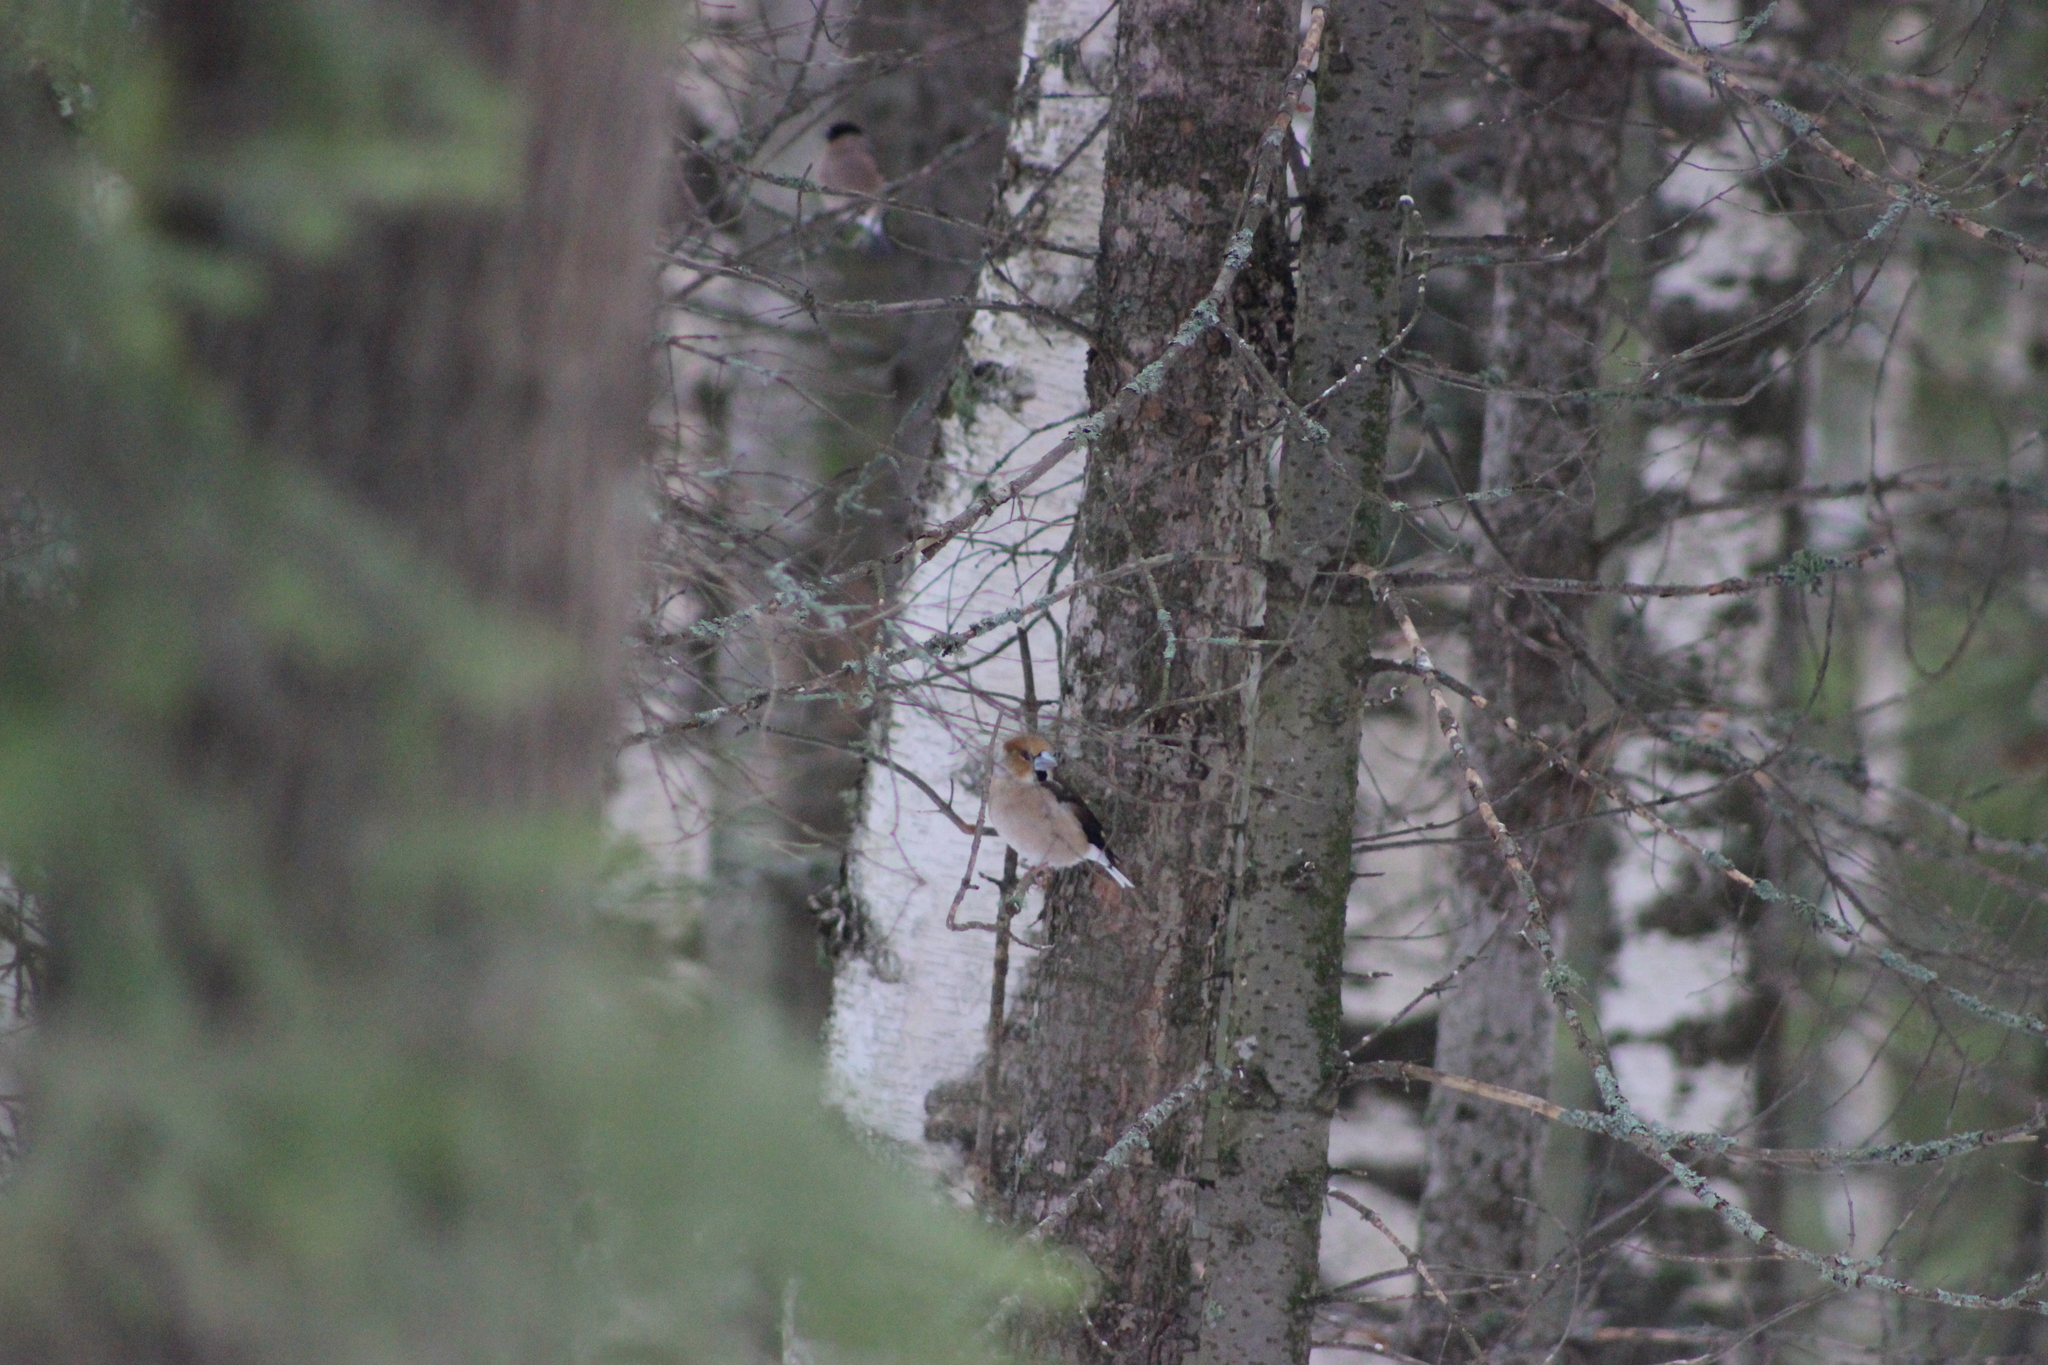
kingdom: Animalia
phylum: Chordata
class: Aves
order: Passeriformes
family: Fringillidae
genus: Coccothraustes
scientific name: Coccothraustes coccothraustes
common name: Hawfinch
